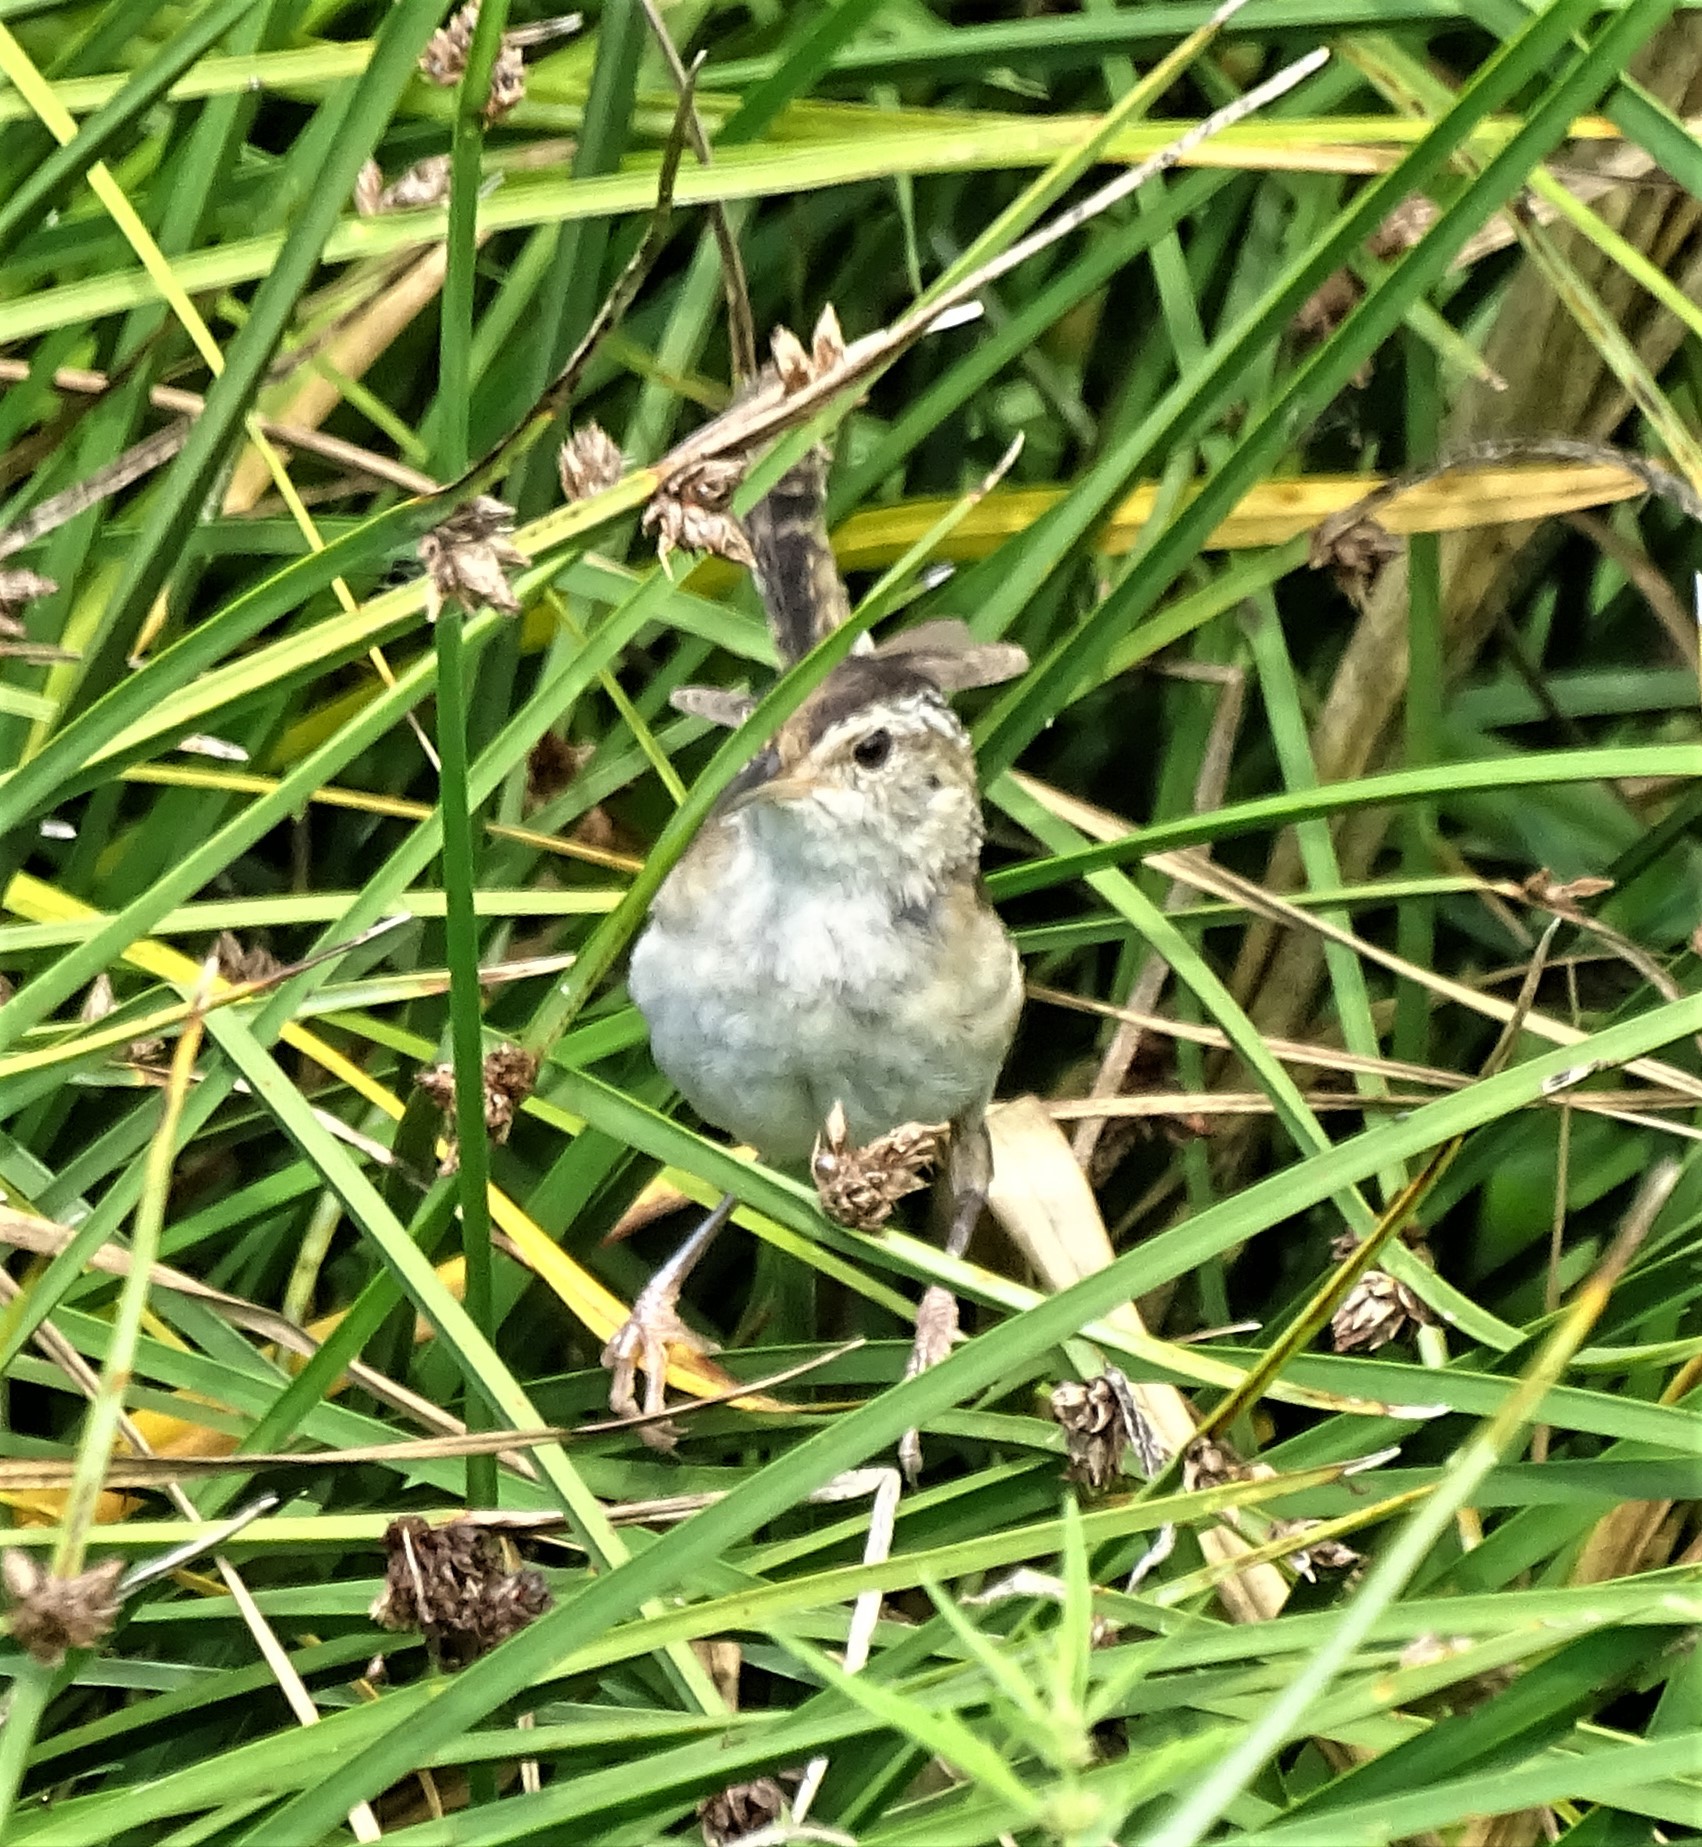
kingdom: Animalia
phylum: Chordata
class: Aves
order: Passeriformes
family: Troglodytidae
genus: Cistothorus
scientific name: Cistothorus palustris
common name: Marsh wren
